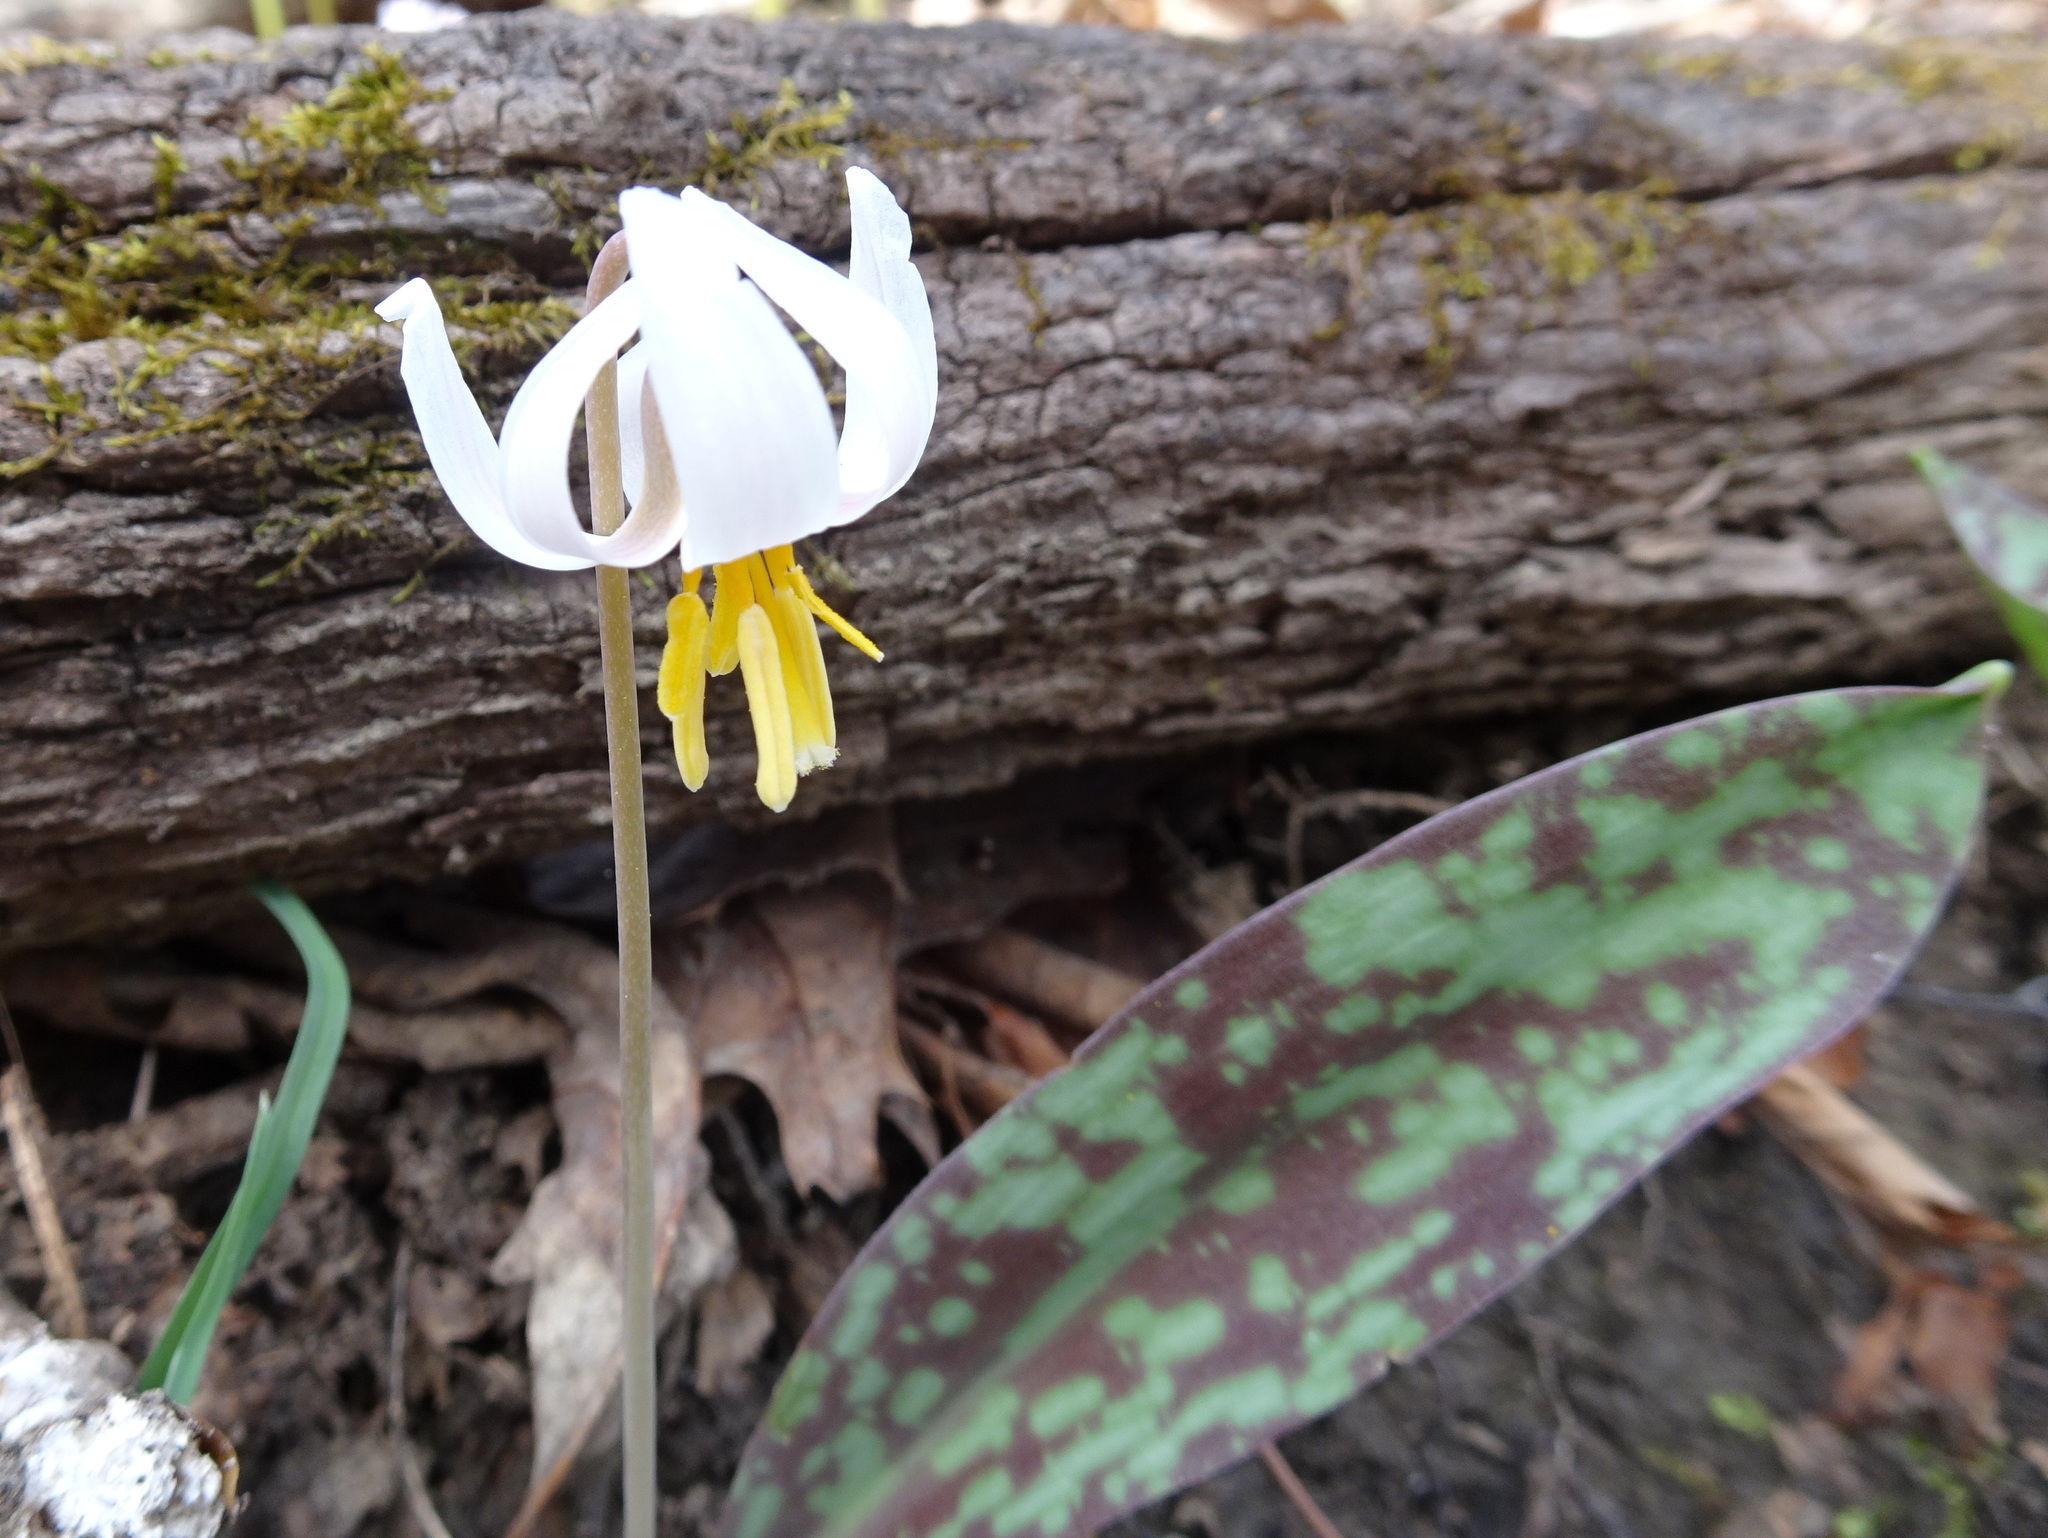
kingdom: Plantae
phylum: Tracheophyta
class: Liliopsida
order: Liliales
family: Liliaceae
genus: Erythronium
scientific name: Erythronium albidum
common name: White trout-lily
